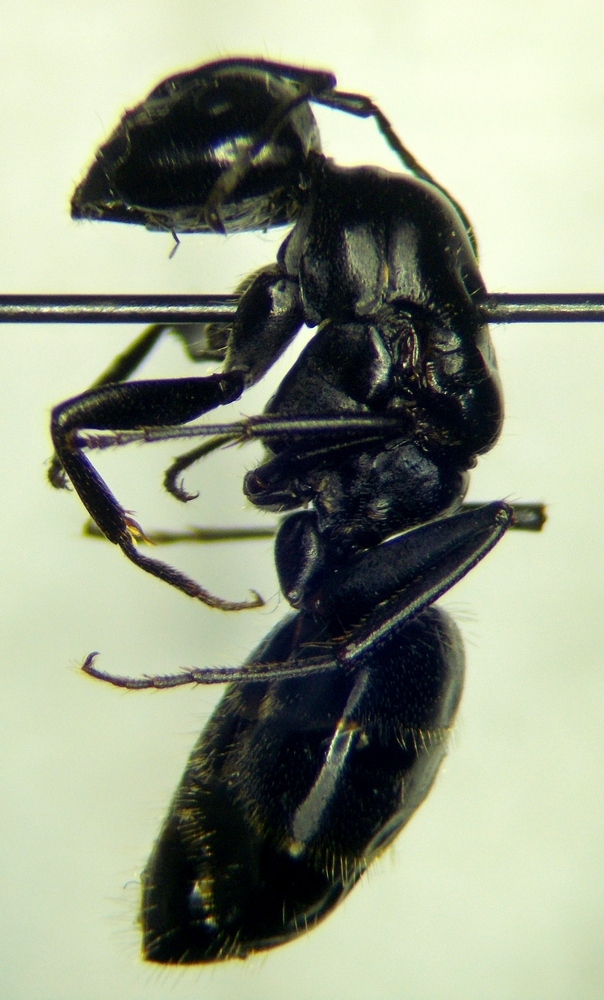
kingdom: Animalia
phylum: Arthropoda
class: Insecta
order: Hymenoptera
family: Formicidae
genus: Camponotus
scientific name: Camponotus vagus
